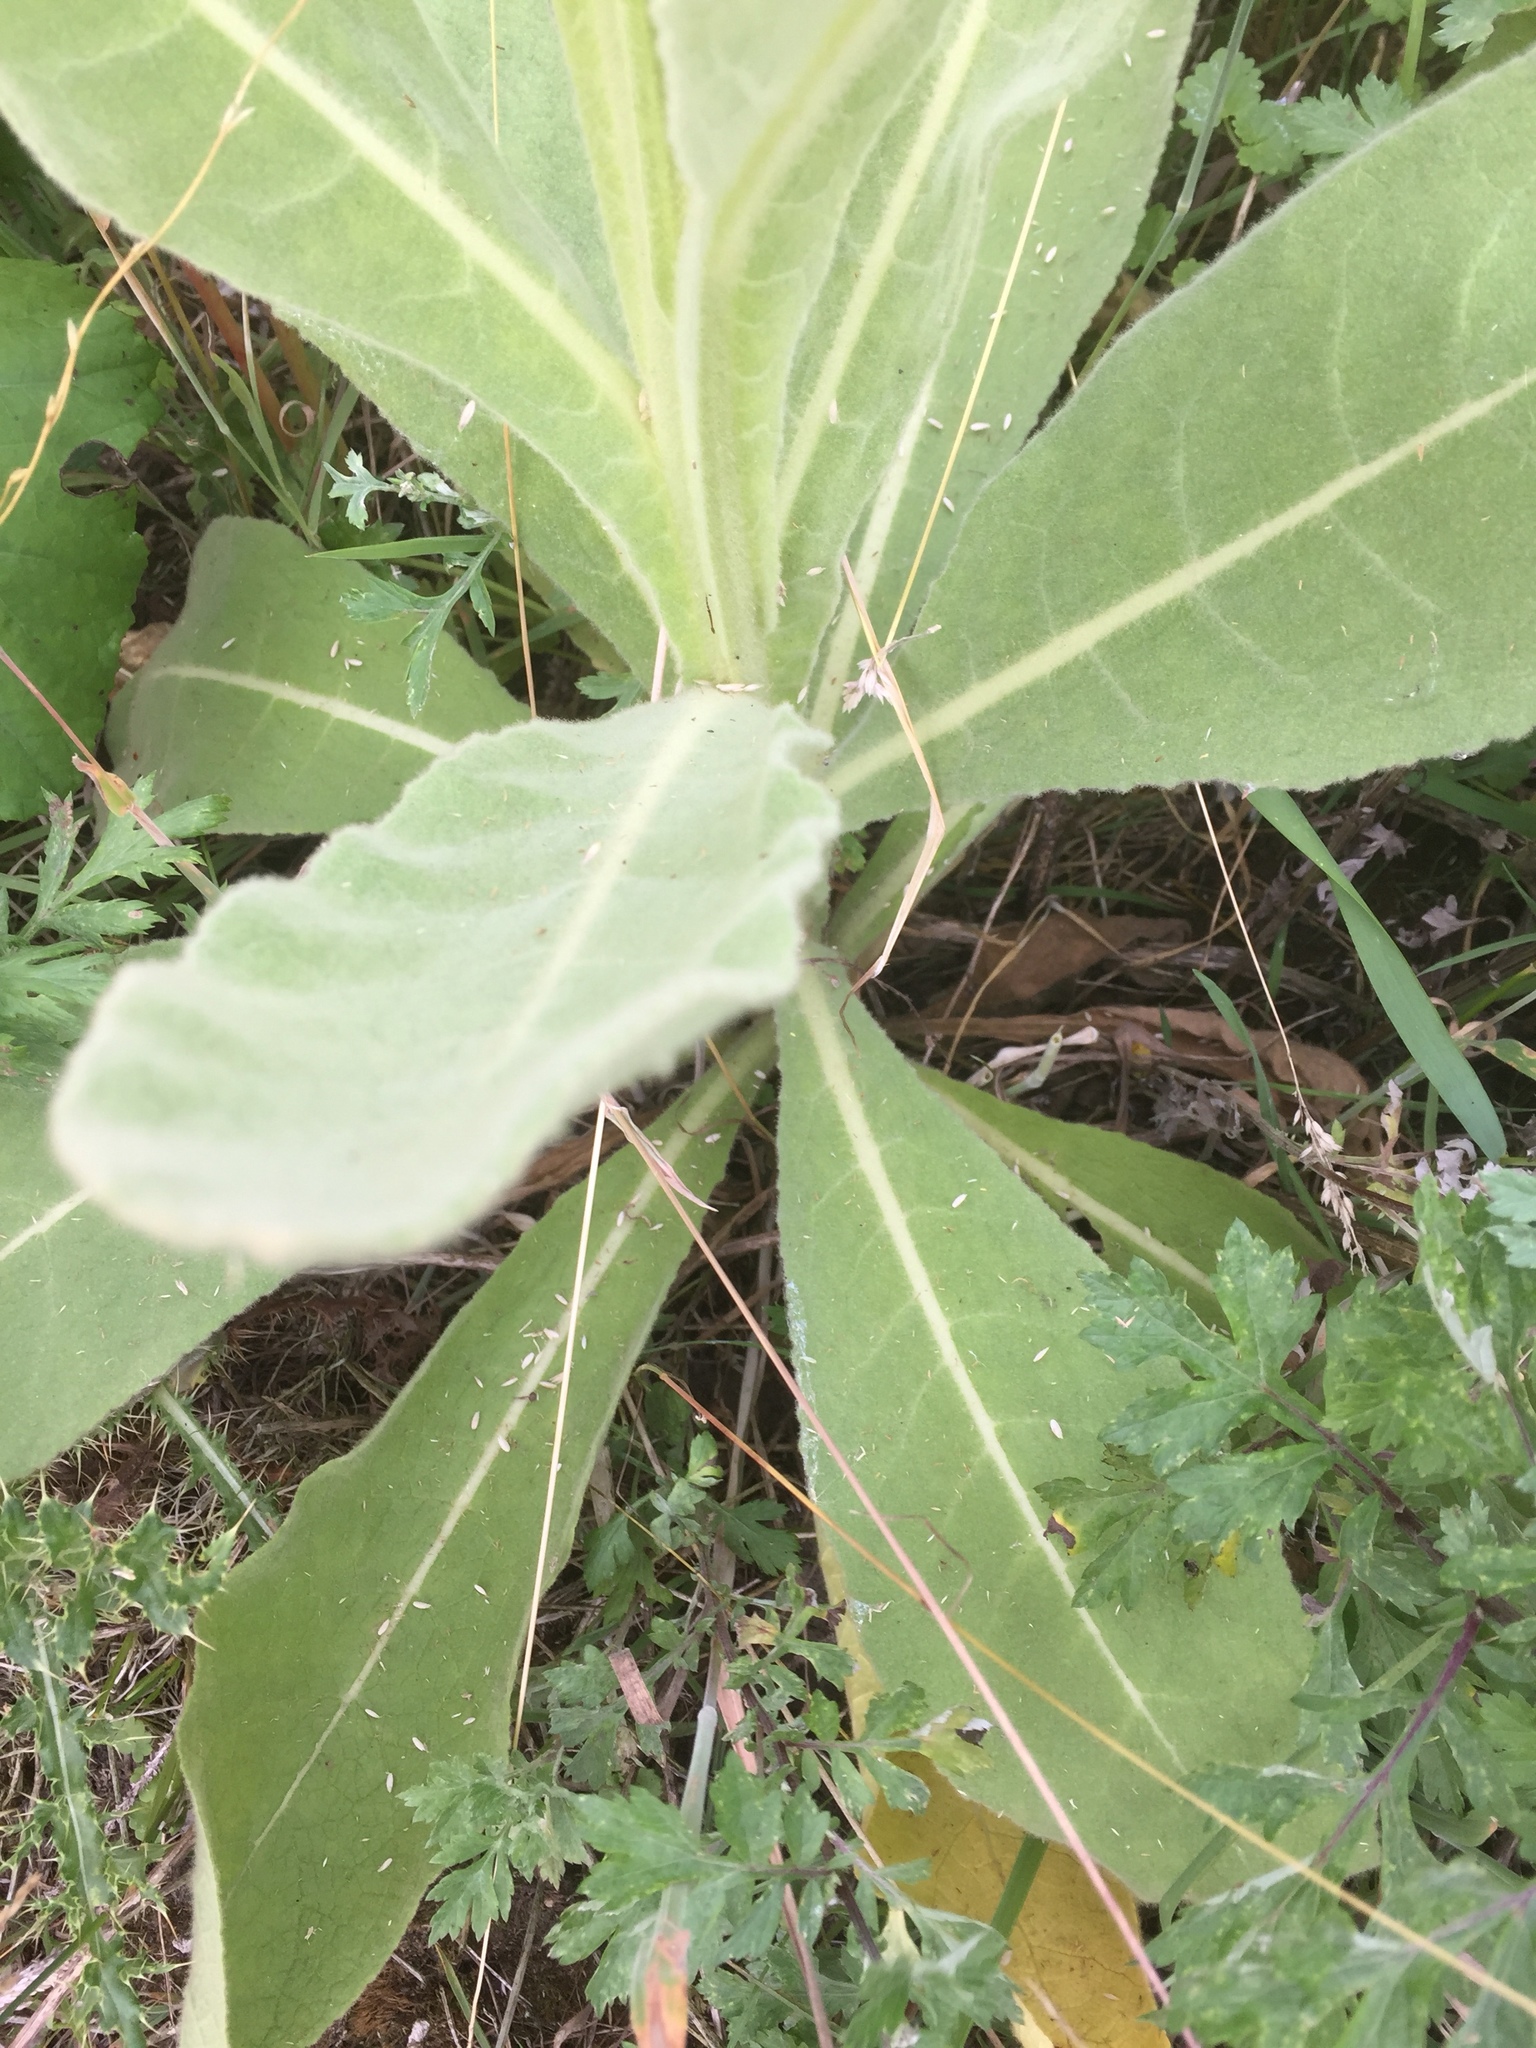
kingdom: Plantae
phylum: Tracheophyta
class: Magnoliopsida
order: Lamiales
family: Scrophulariaceae
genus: Verbascum
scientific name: Verbascum thapsus
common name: Common mullein
